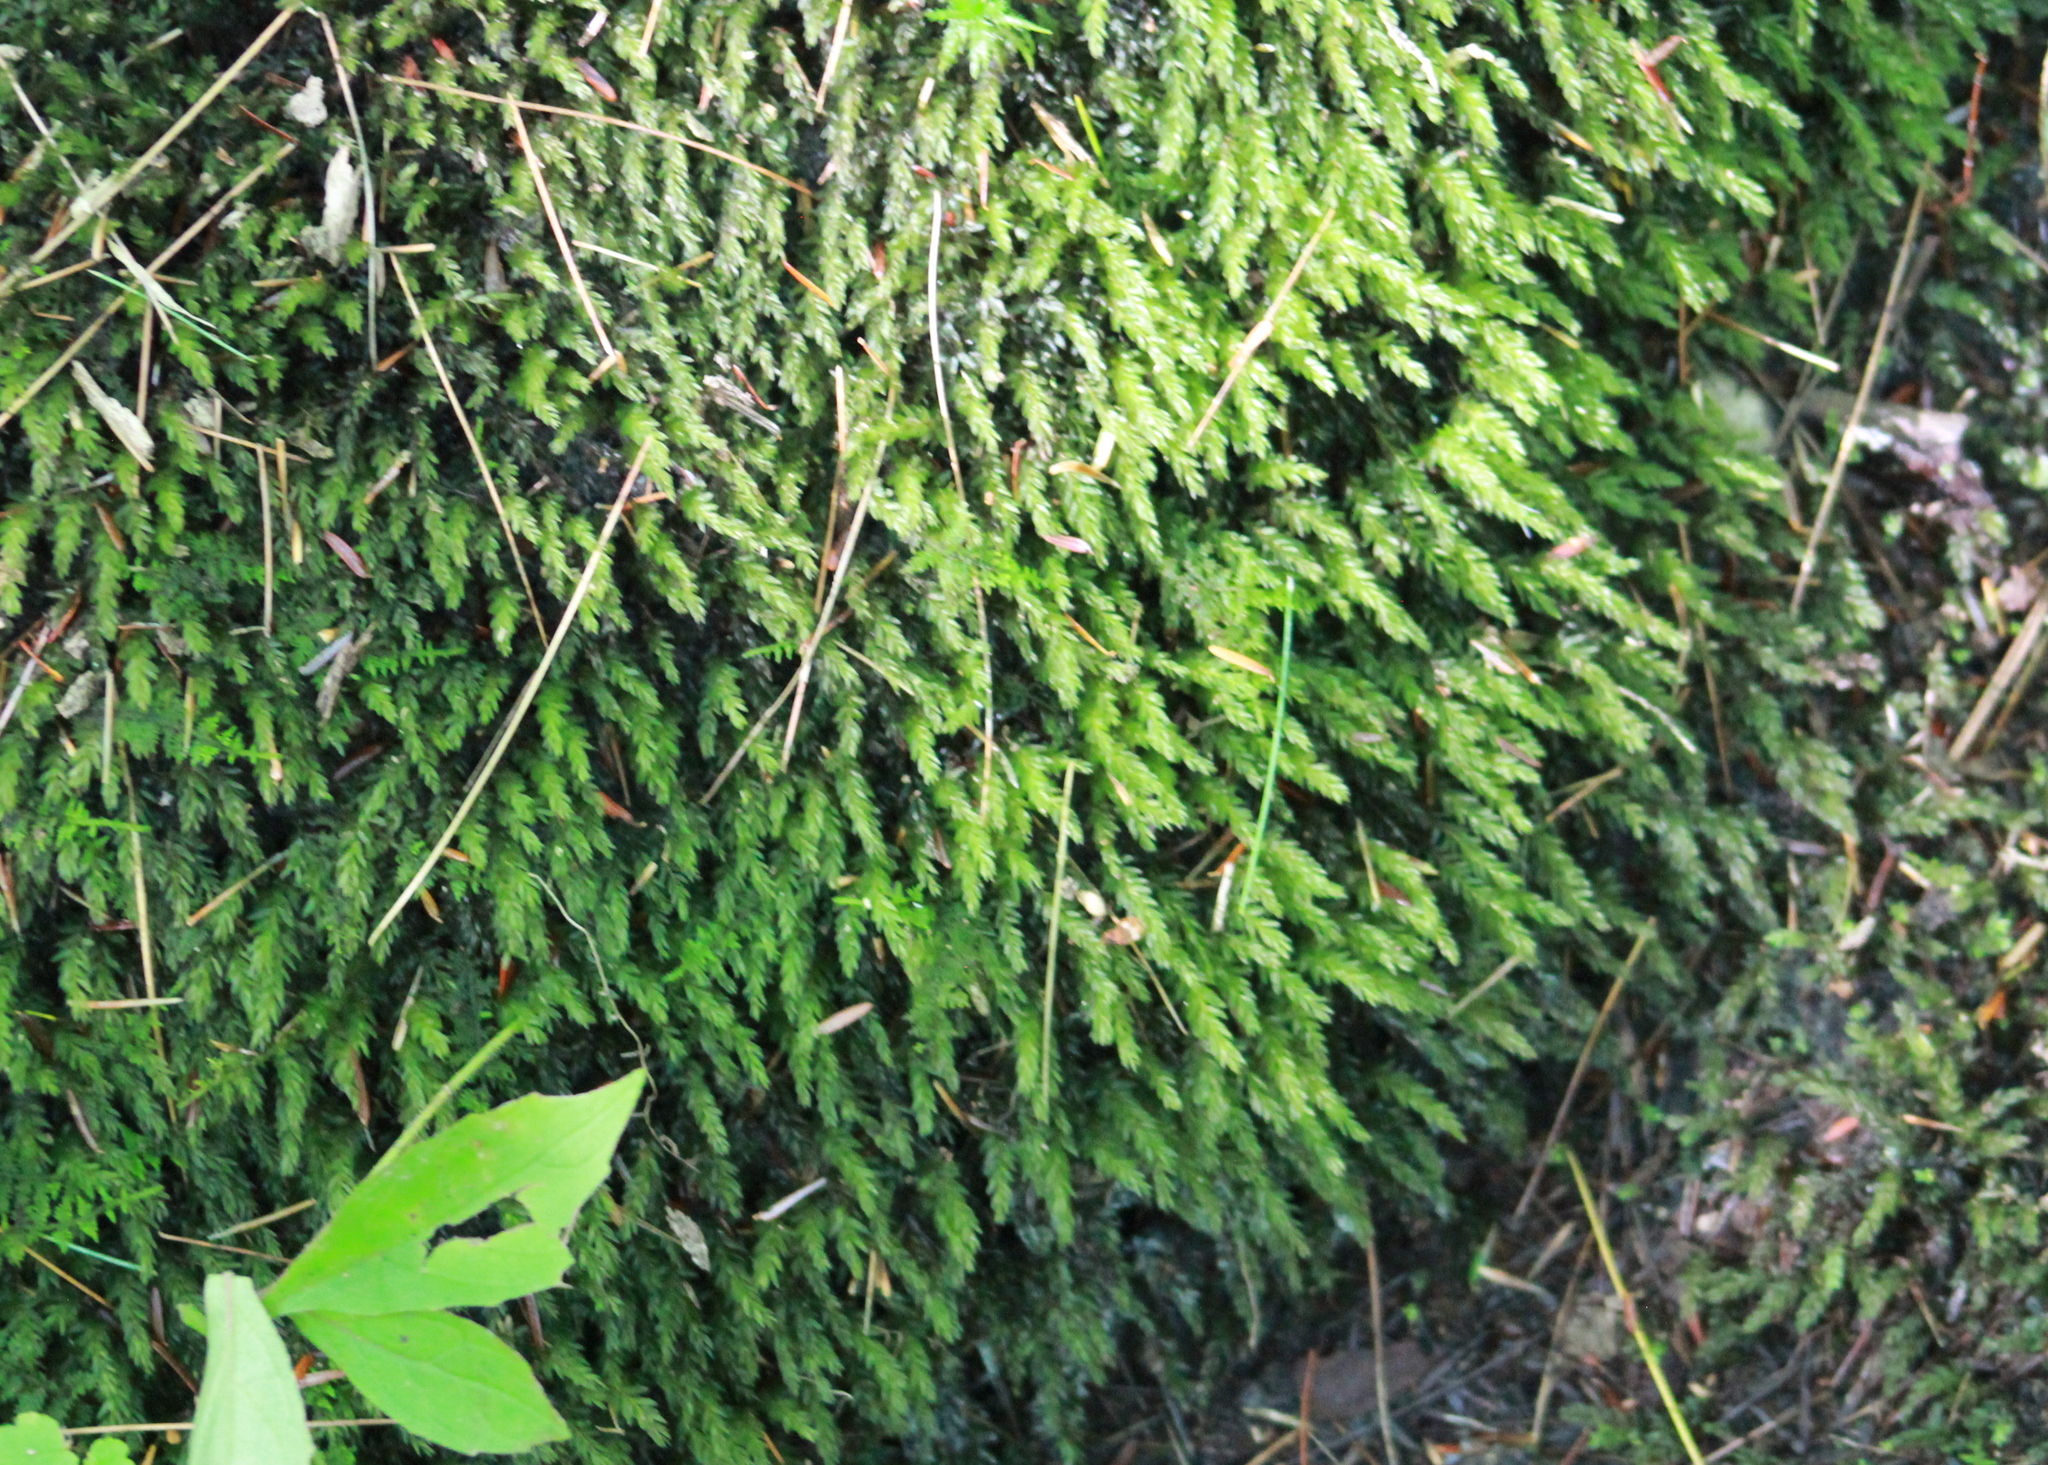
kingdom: Plantae
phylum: Bryophyta
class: Bryopsida
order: Bryales
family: Mniaceae
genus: Mnium
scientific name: Mnium hornum
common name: Swan's-neck leafy moss
